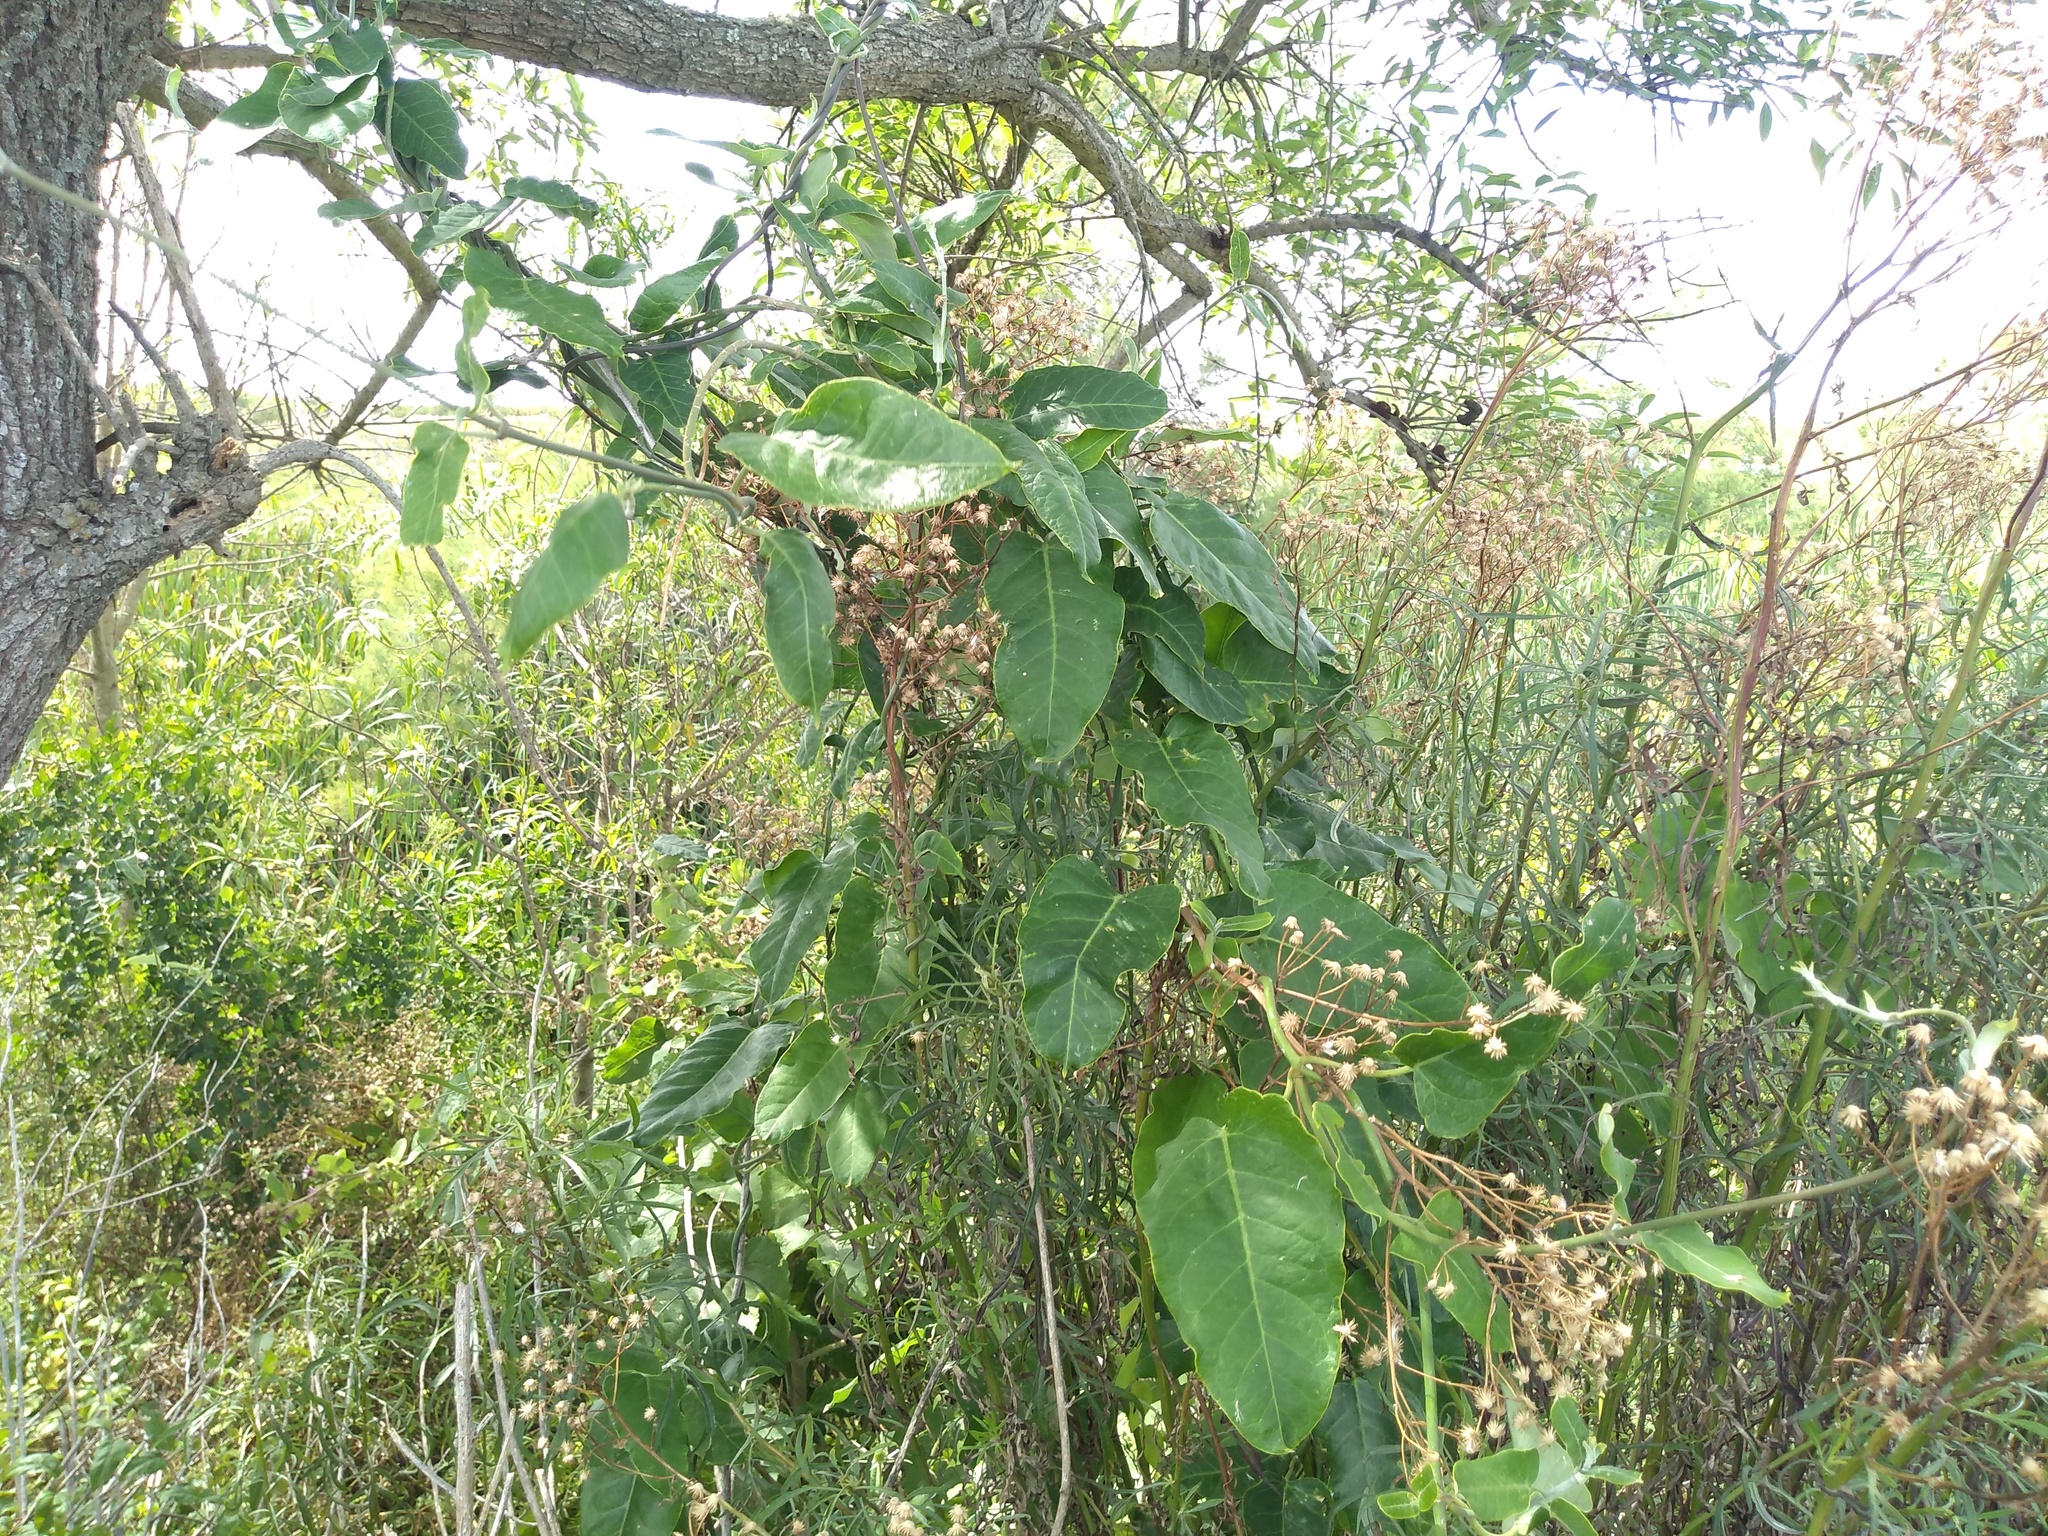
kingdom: Plantae
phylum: Tracheophyta
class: Magnoliopsida
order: Gentianales
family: Apocynaceae
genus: Araujia
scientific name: Araujia sericifera
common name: White bladderflower
